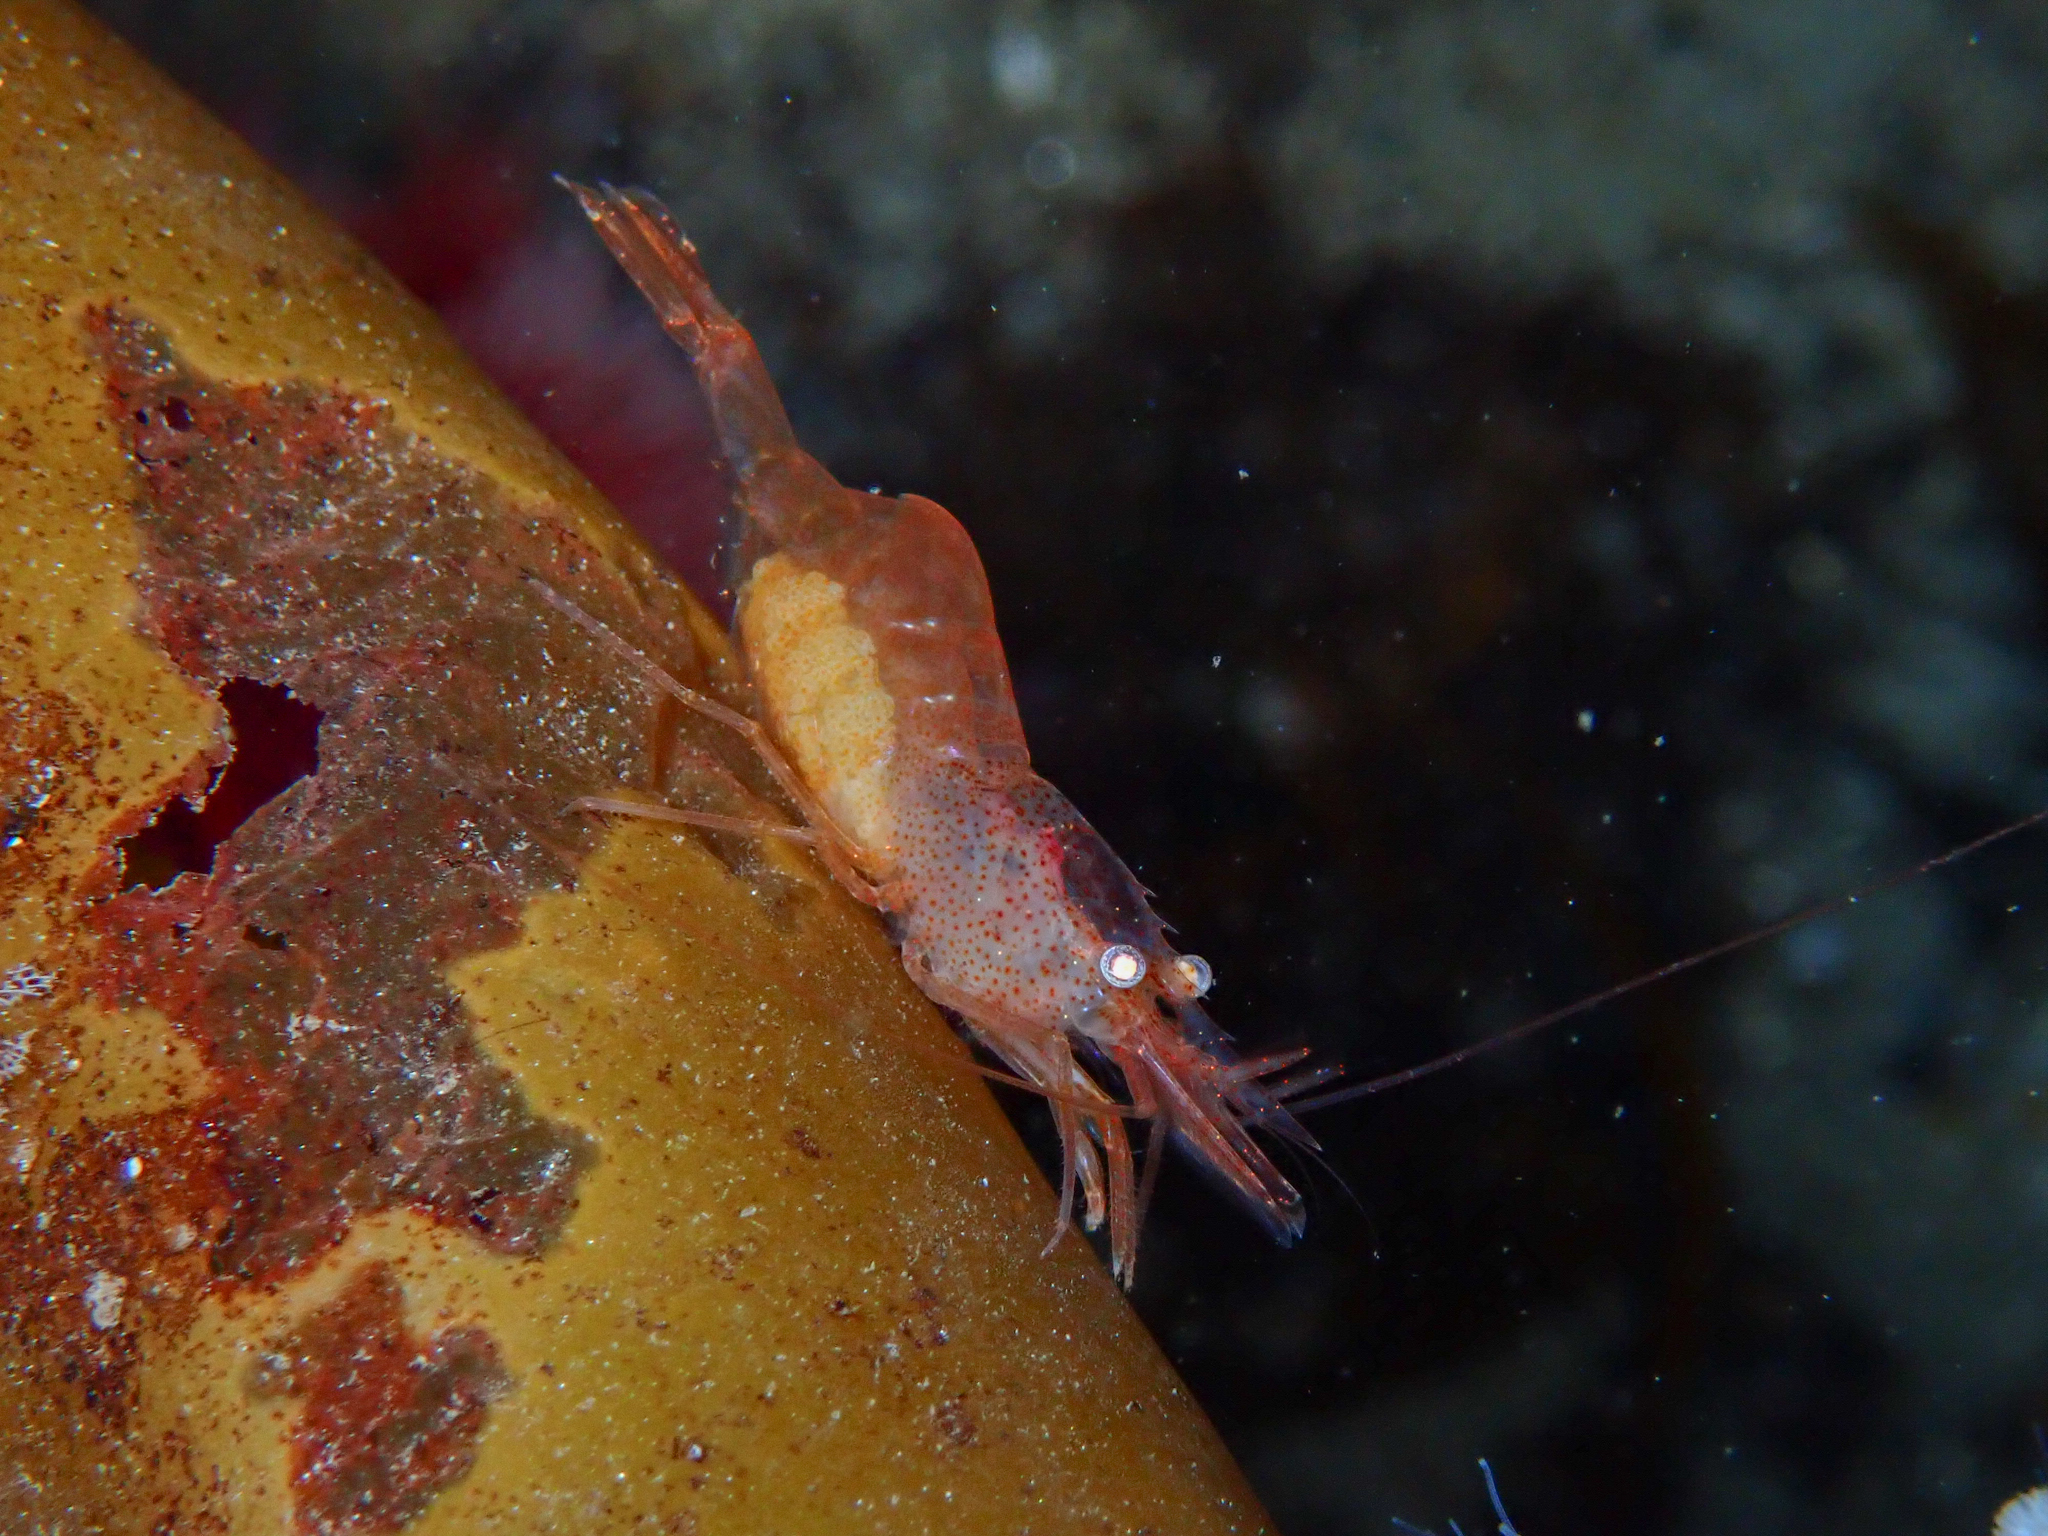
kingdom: Animalia
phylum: Arthropoda
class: Malacostraca
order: Decapoda
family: Thoridae
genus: Eualus
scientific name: Eualus gaimardii
